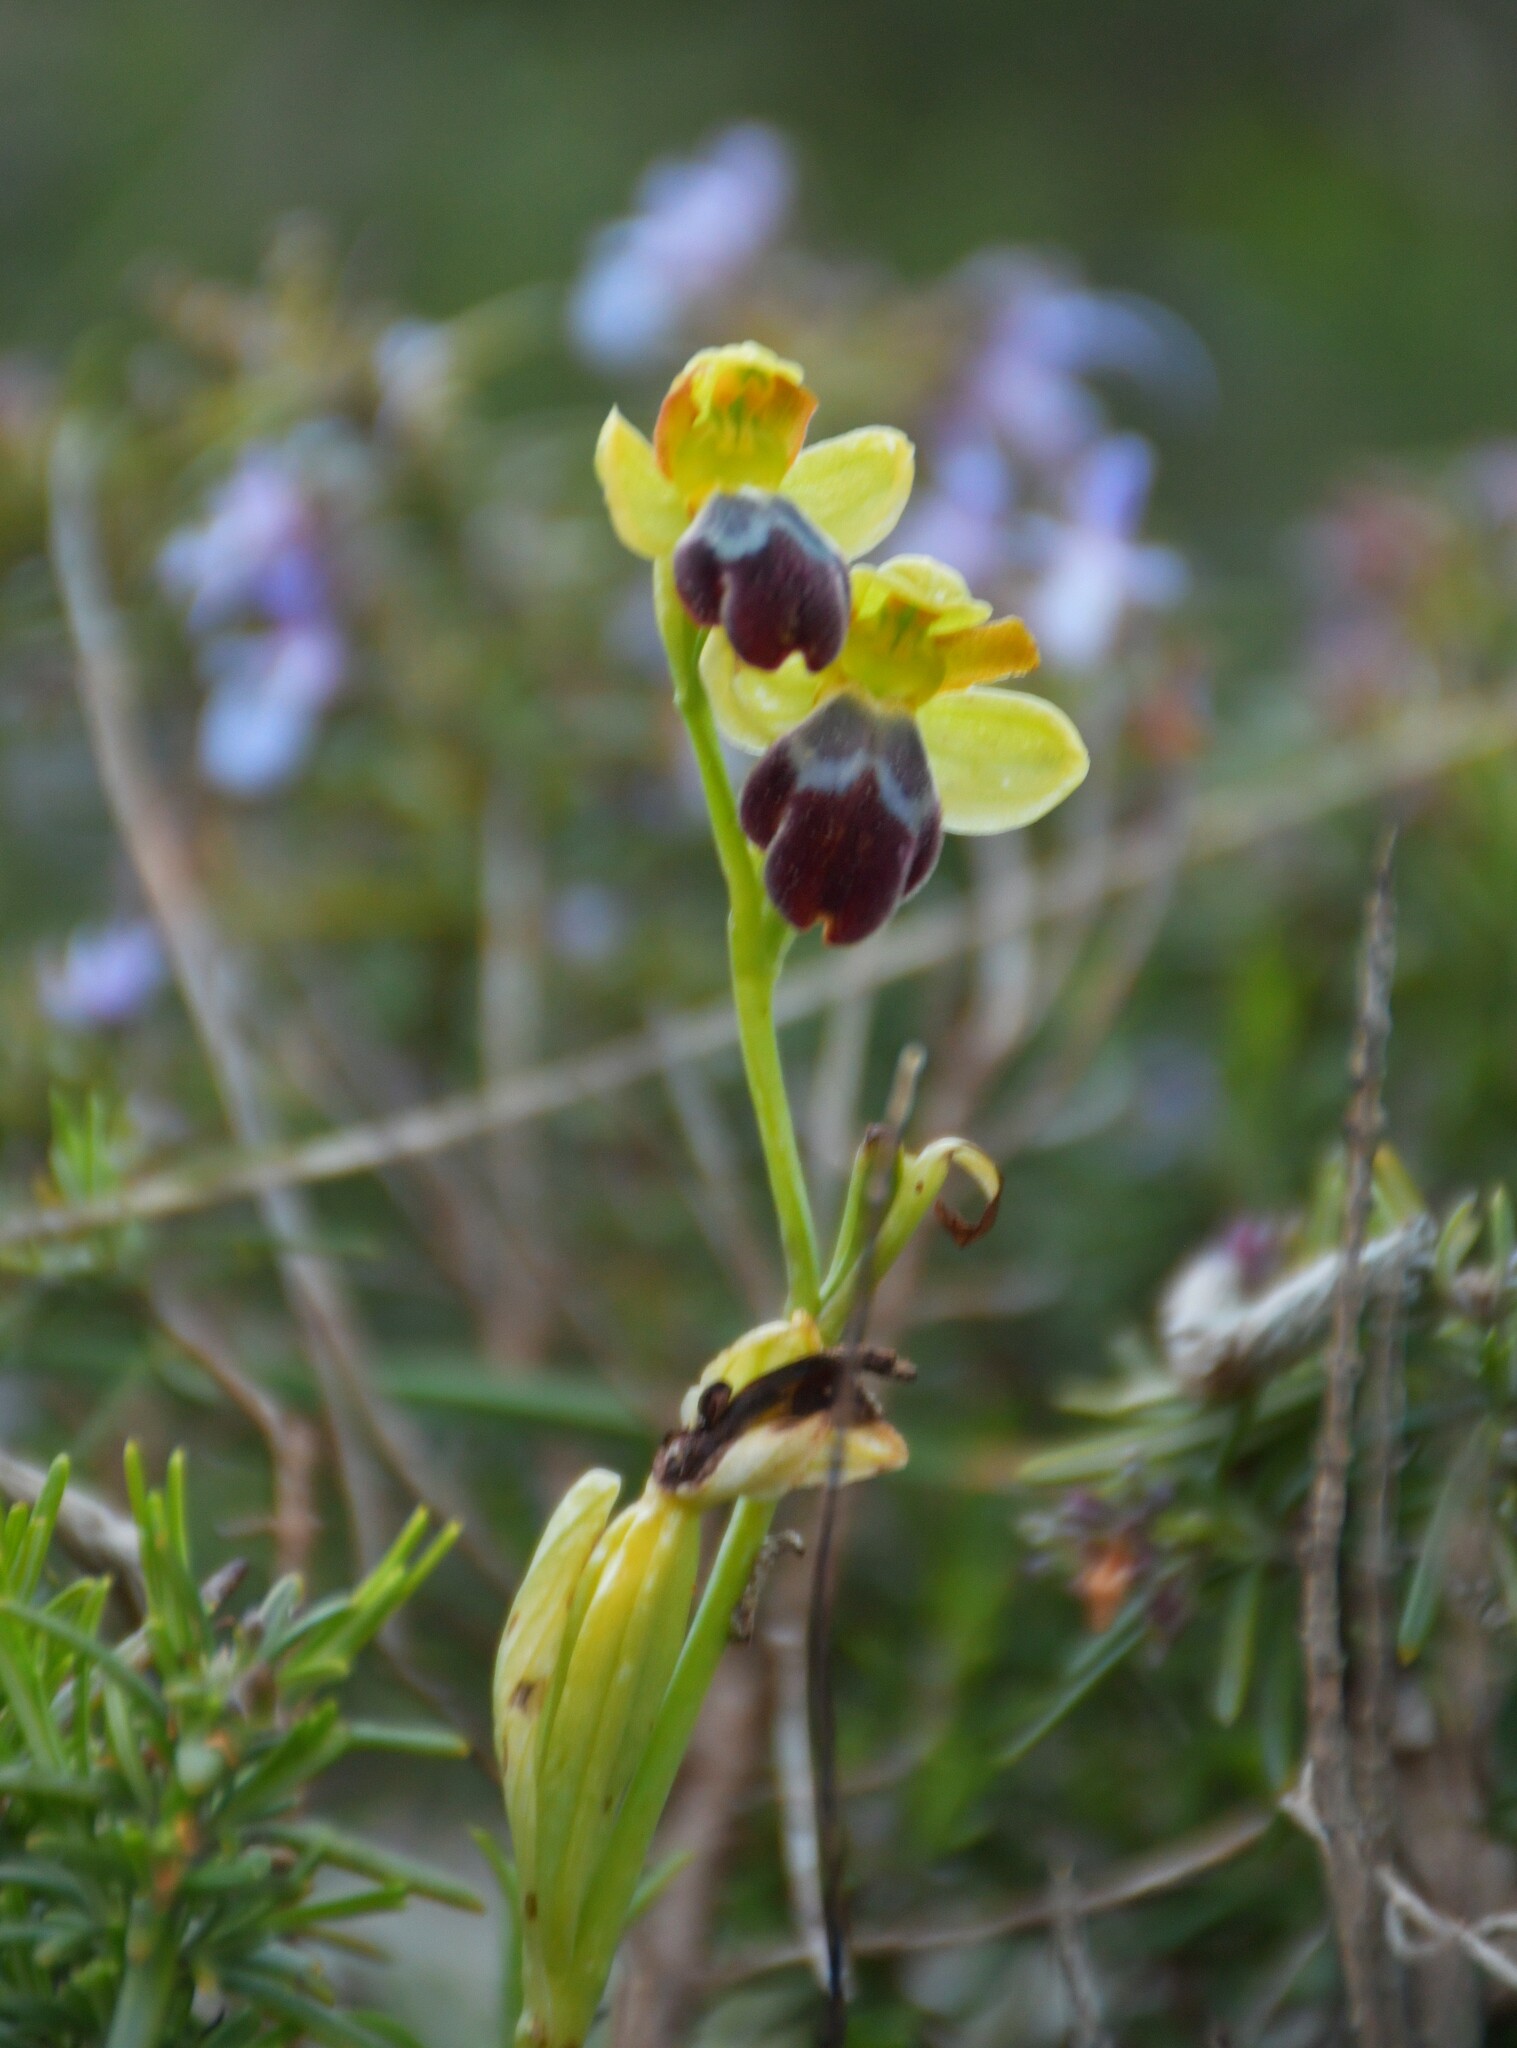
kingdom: Plantae
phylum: Tracheophyta
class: Liliopsida
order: Asparagales
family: Orchidaceae
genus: Ophrys
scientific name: Ophrys fusca
